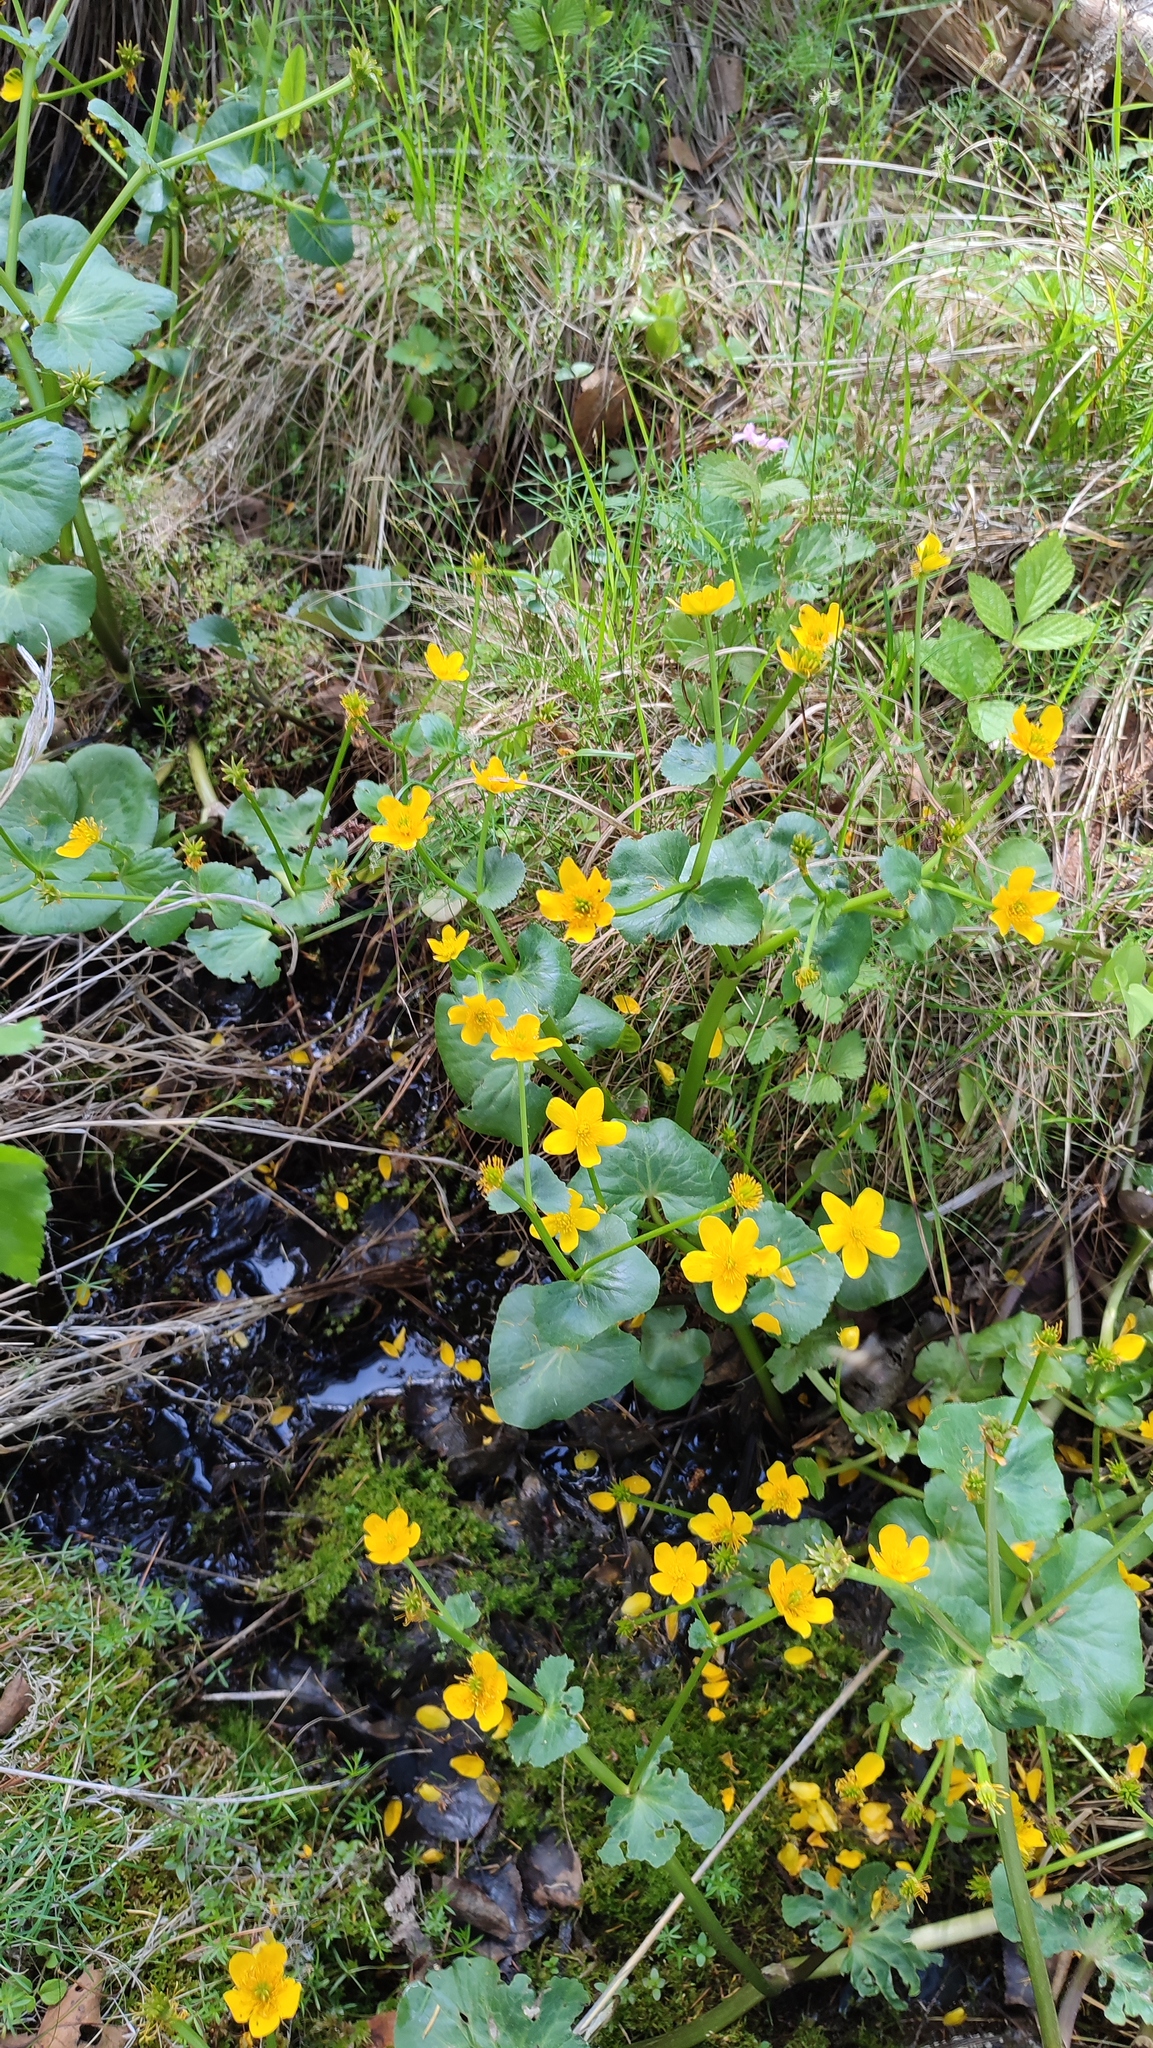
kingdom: Plantae
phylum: Tracheophyta
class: Magnoliopsida
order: Ranunculales
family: Ranunculaceae
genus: Caltha
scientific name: Caltha palustris
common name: Marsh marigold
